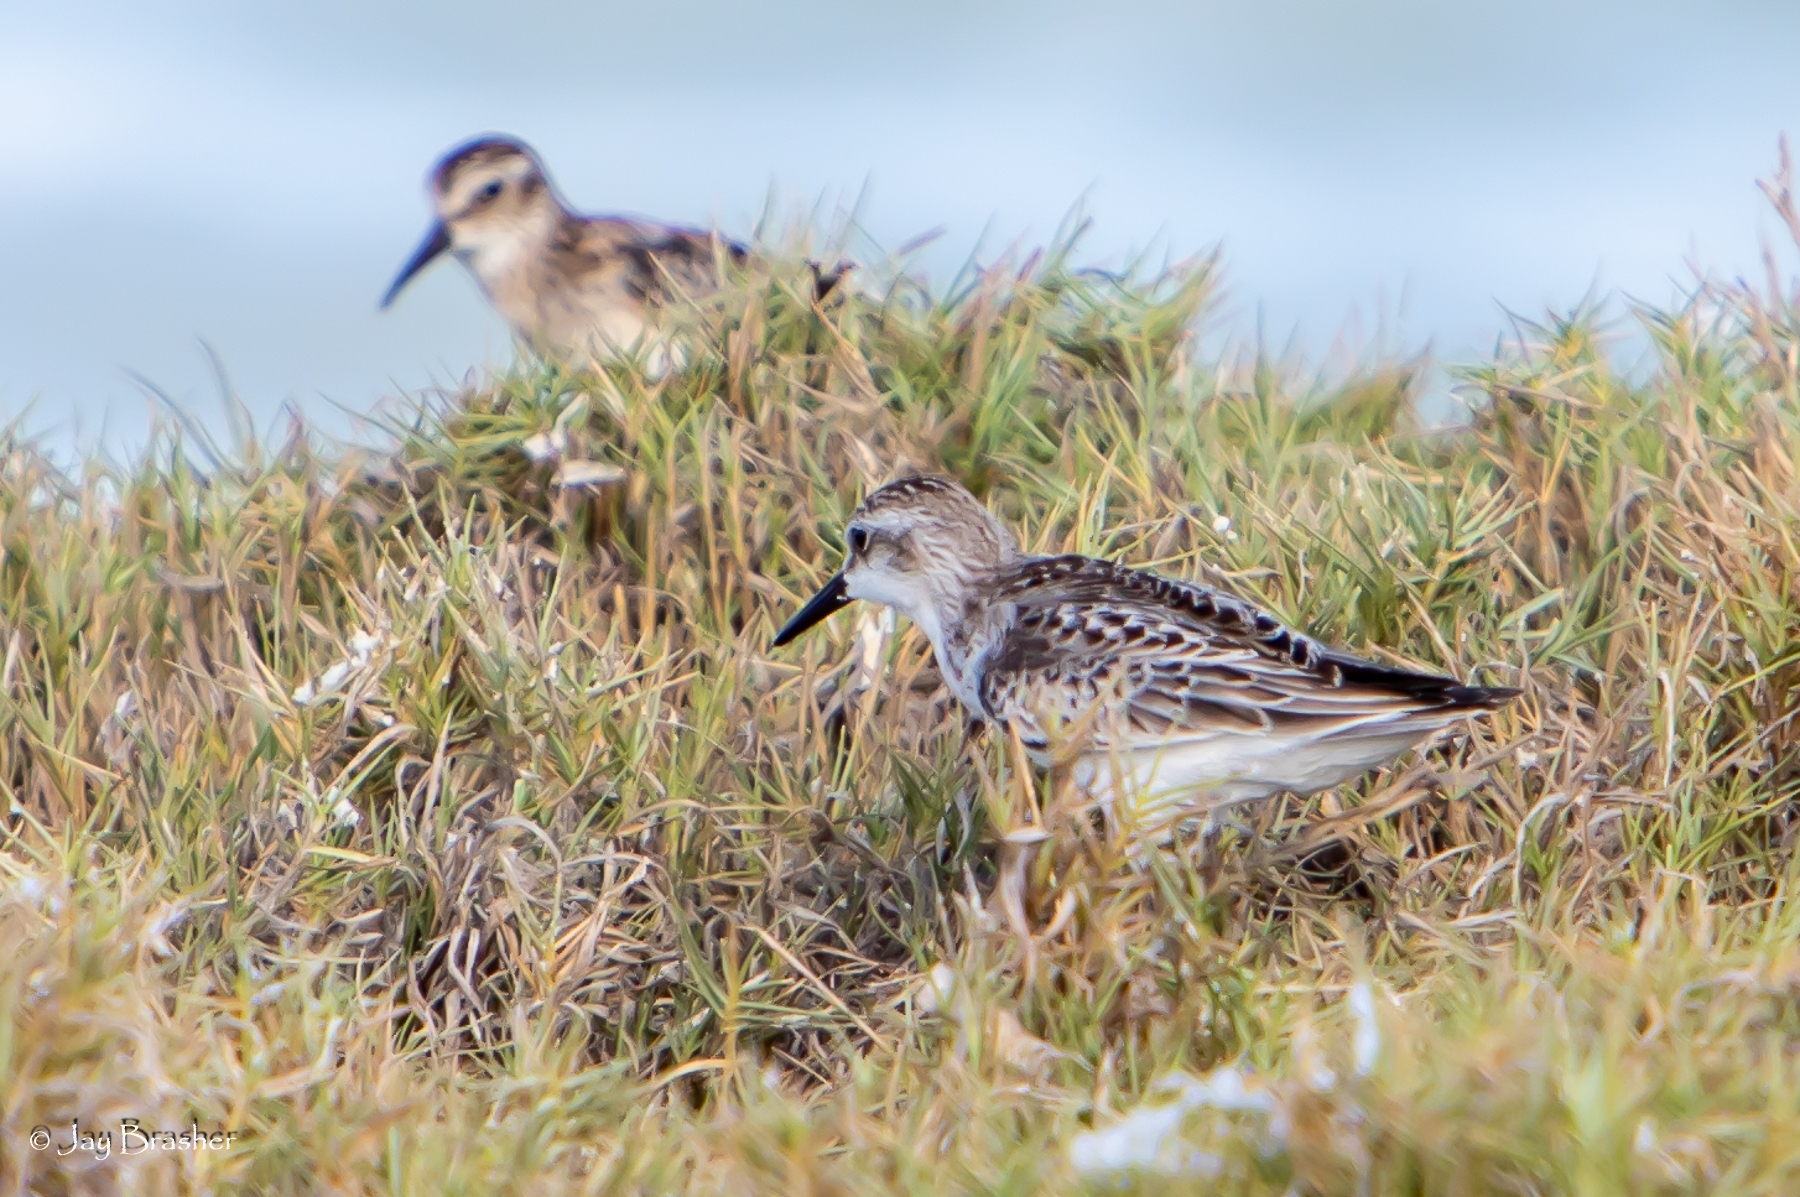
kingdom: Animalia
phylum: Chordata
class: Aves
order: Charadriiformes
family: Scolopacidae
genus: Calidris
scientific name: Calidris pusilla
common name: Semipalmated sandpiper
